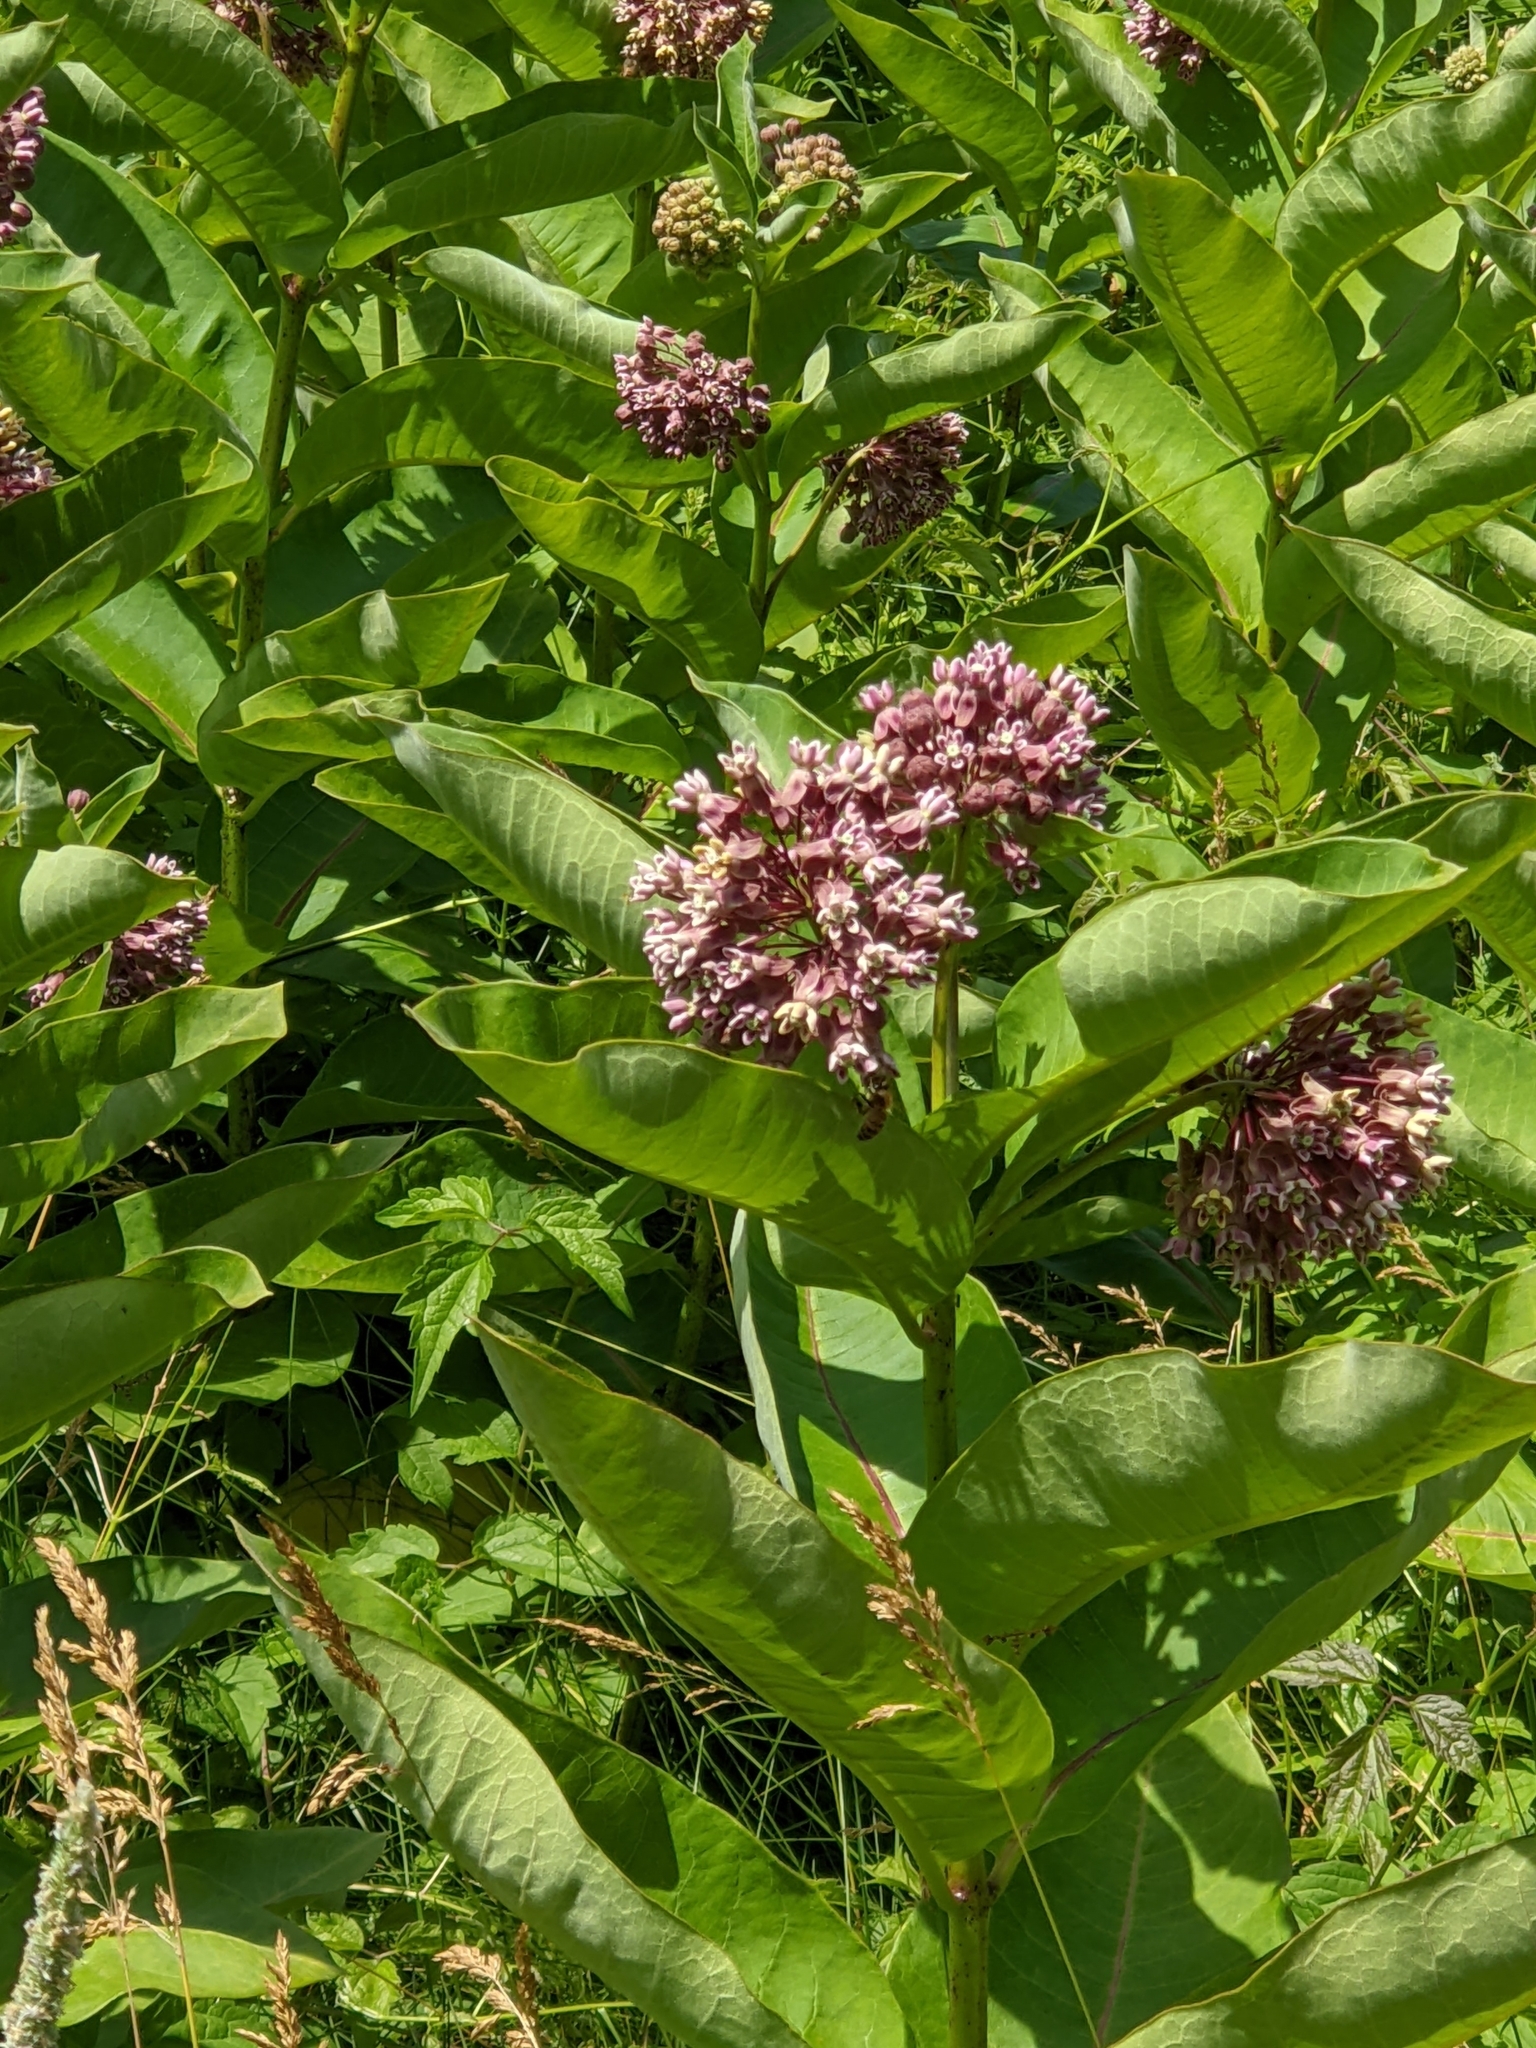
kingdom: Plantae
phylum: Tracheophyta
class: Magnoliopsida
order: Gentianales
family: Apocynaceae
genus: Asclepias
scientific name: Asclepias syriaca
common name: Common milkweed
